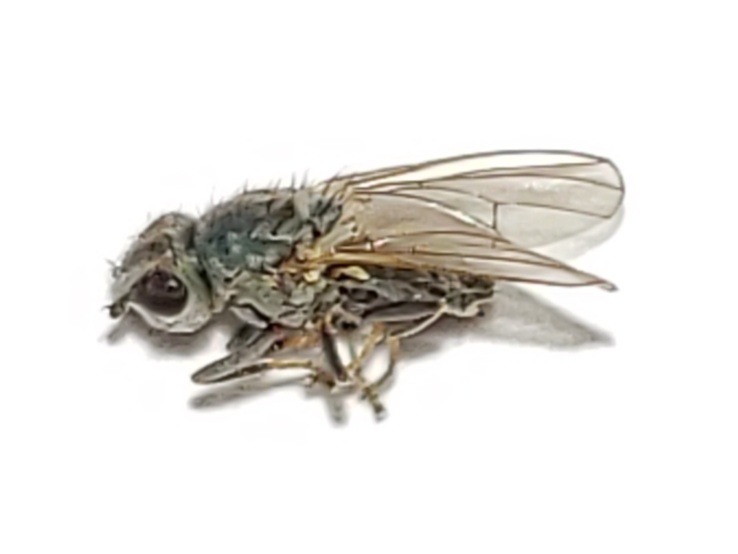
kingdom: Animalia
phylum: Arthropoda
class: Insecta
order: Diptera
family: Canacidae
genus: Canacea
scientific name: Canacea macateei
